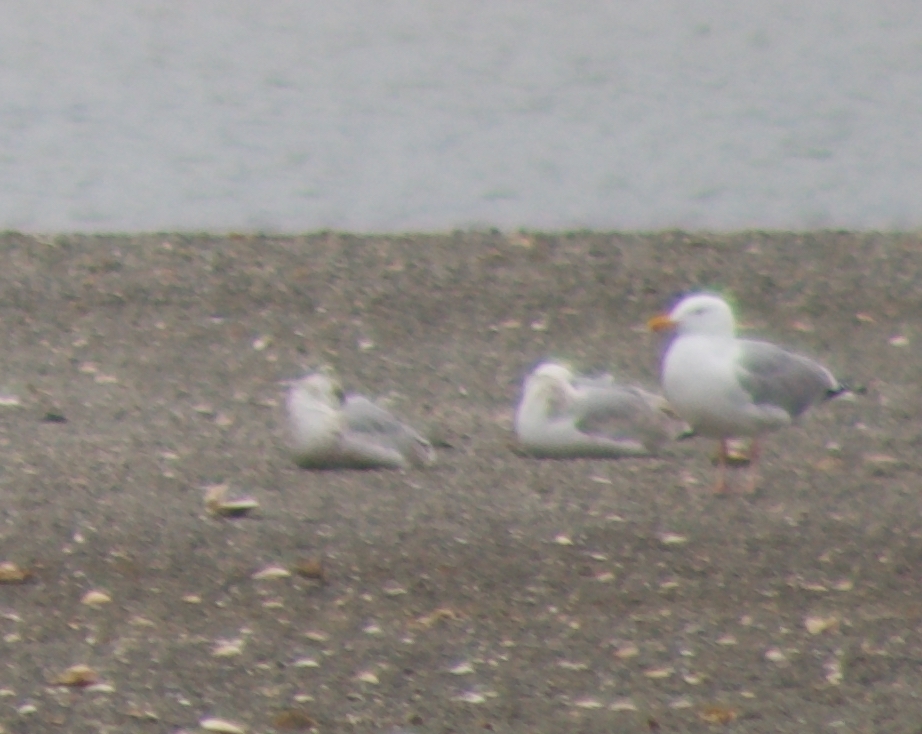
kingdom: Animalia
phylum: Chordata
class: Aves
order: Charadriiformes
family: Laridae
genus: Larus
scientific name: Larus argentatus
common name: Herring gull
